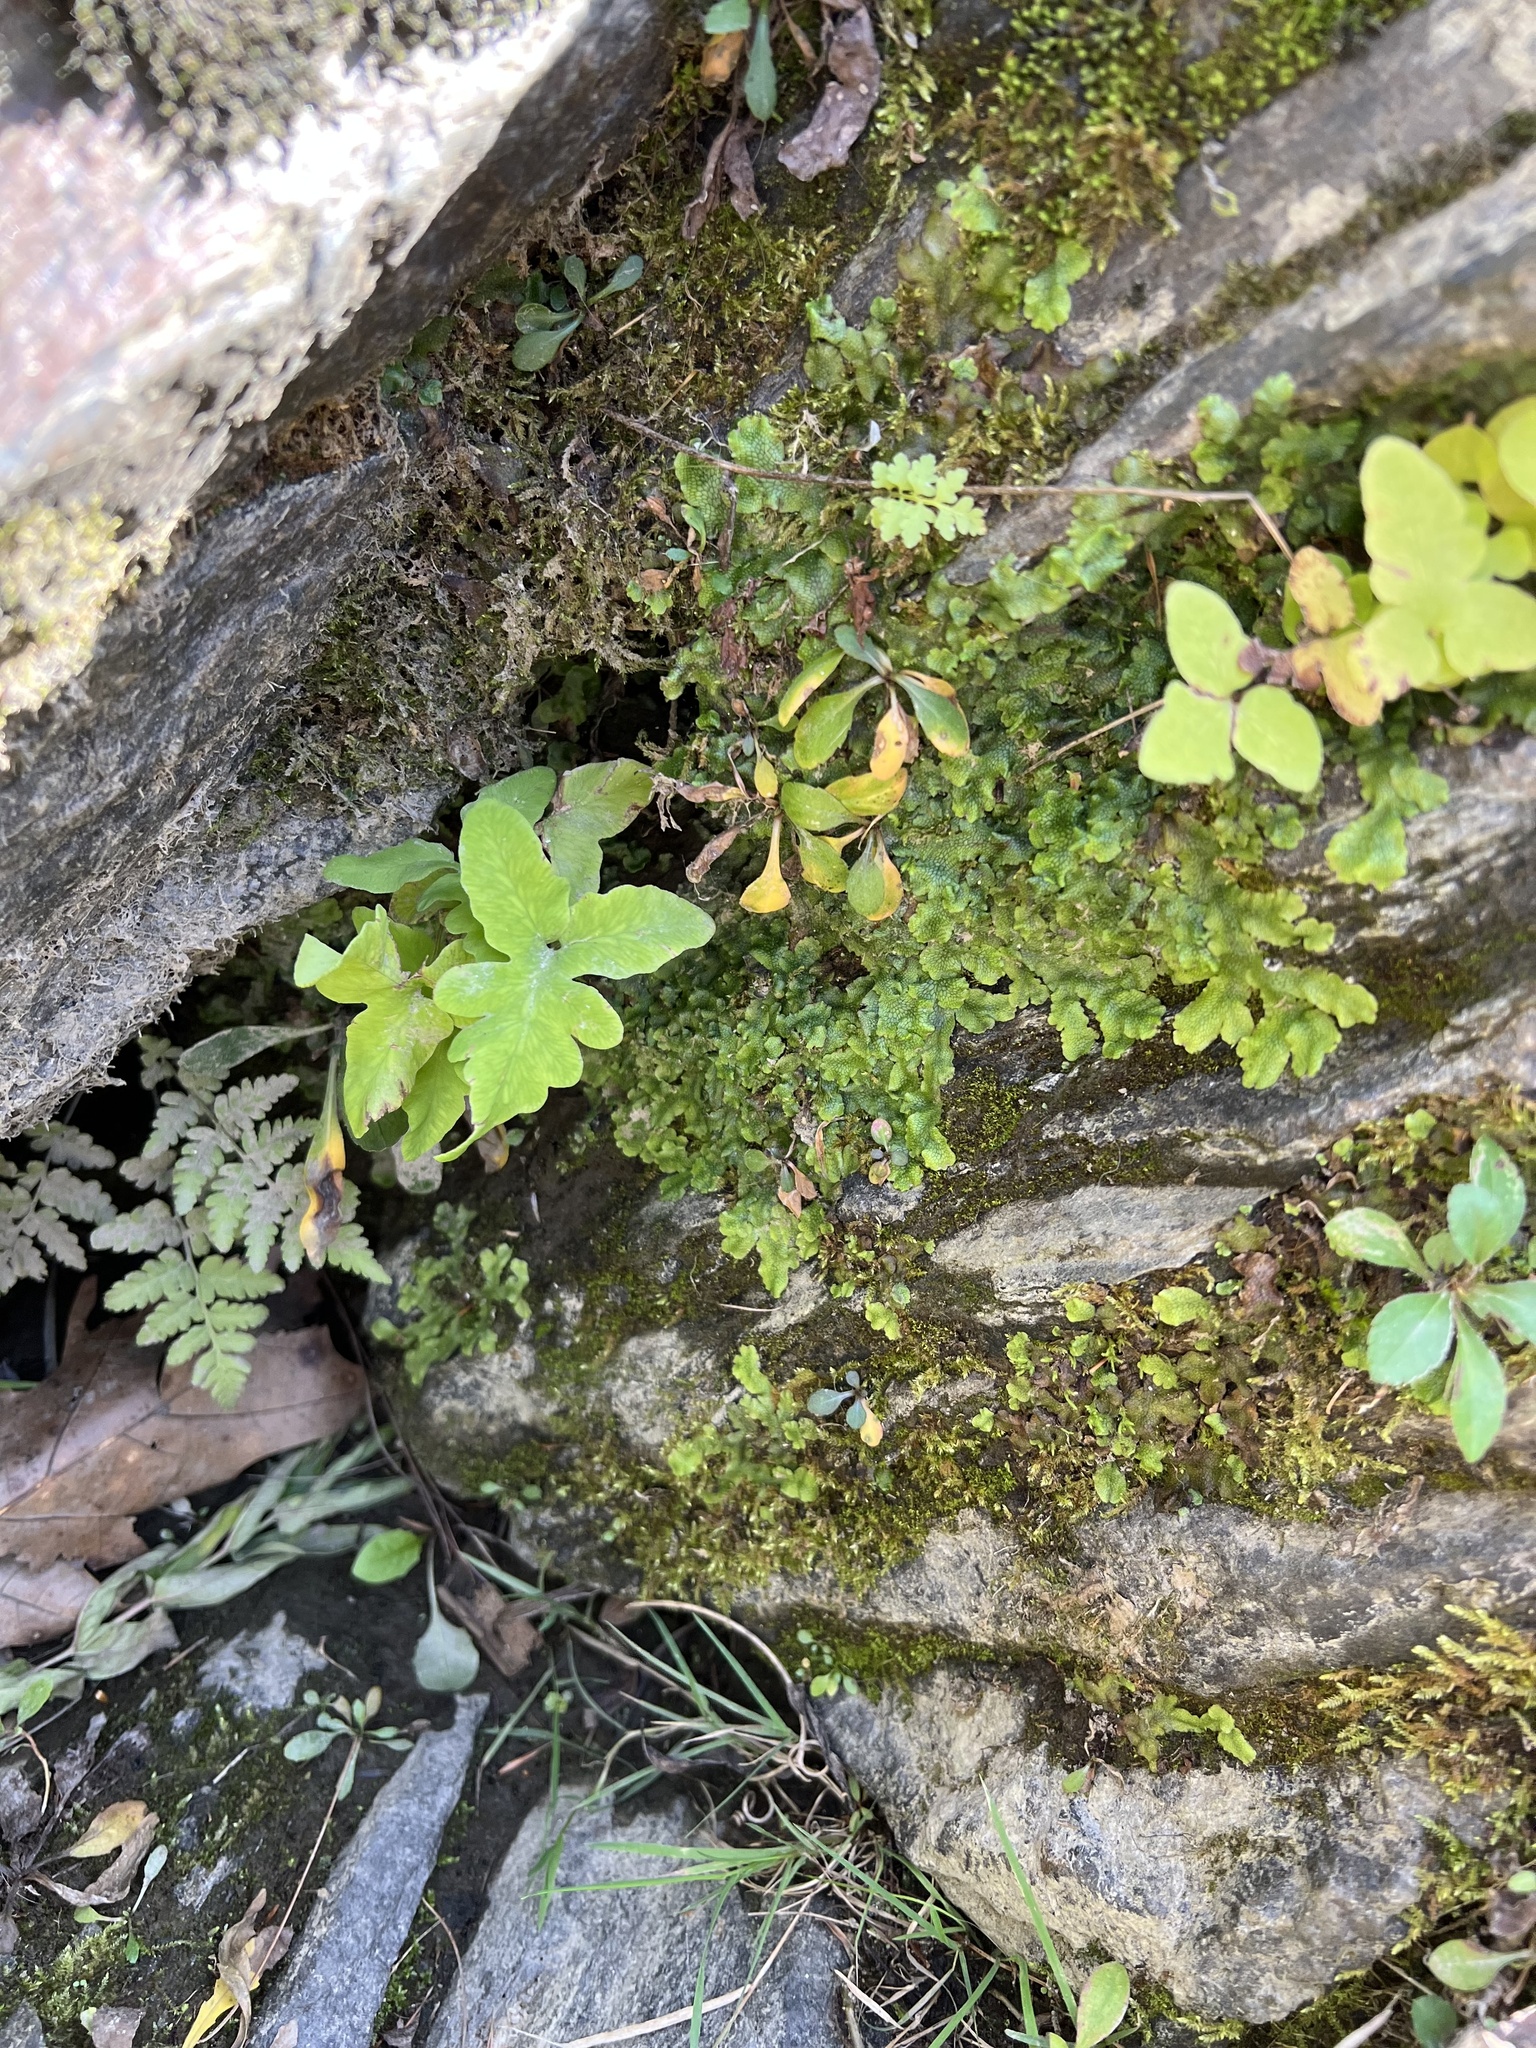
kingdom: Plantae
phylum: Tracheophyta
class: Polypodiopsida
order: Polypodiales
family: Onocleaceae
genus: Onoclea
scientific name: Onoclea sensibilis
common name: Sensitive fern
